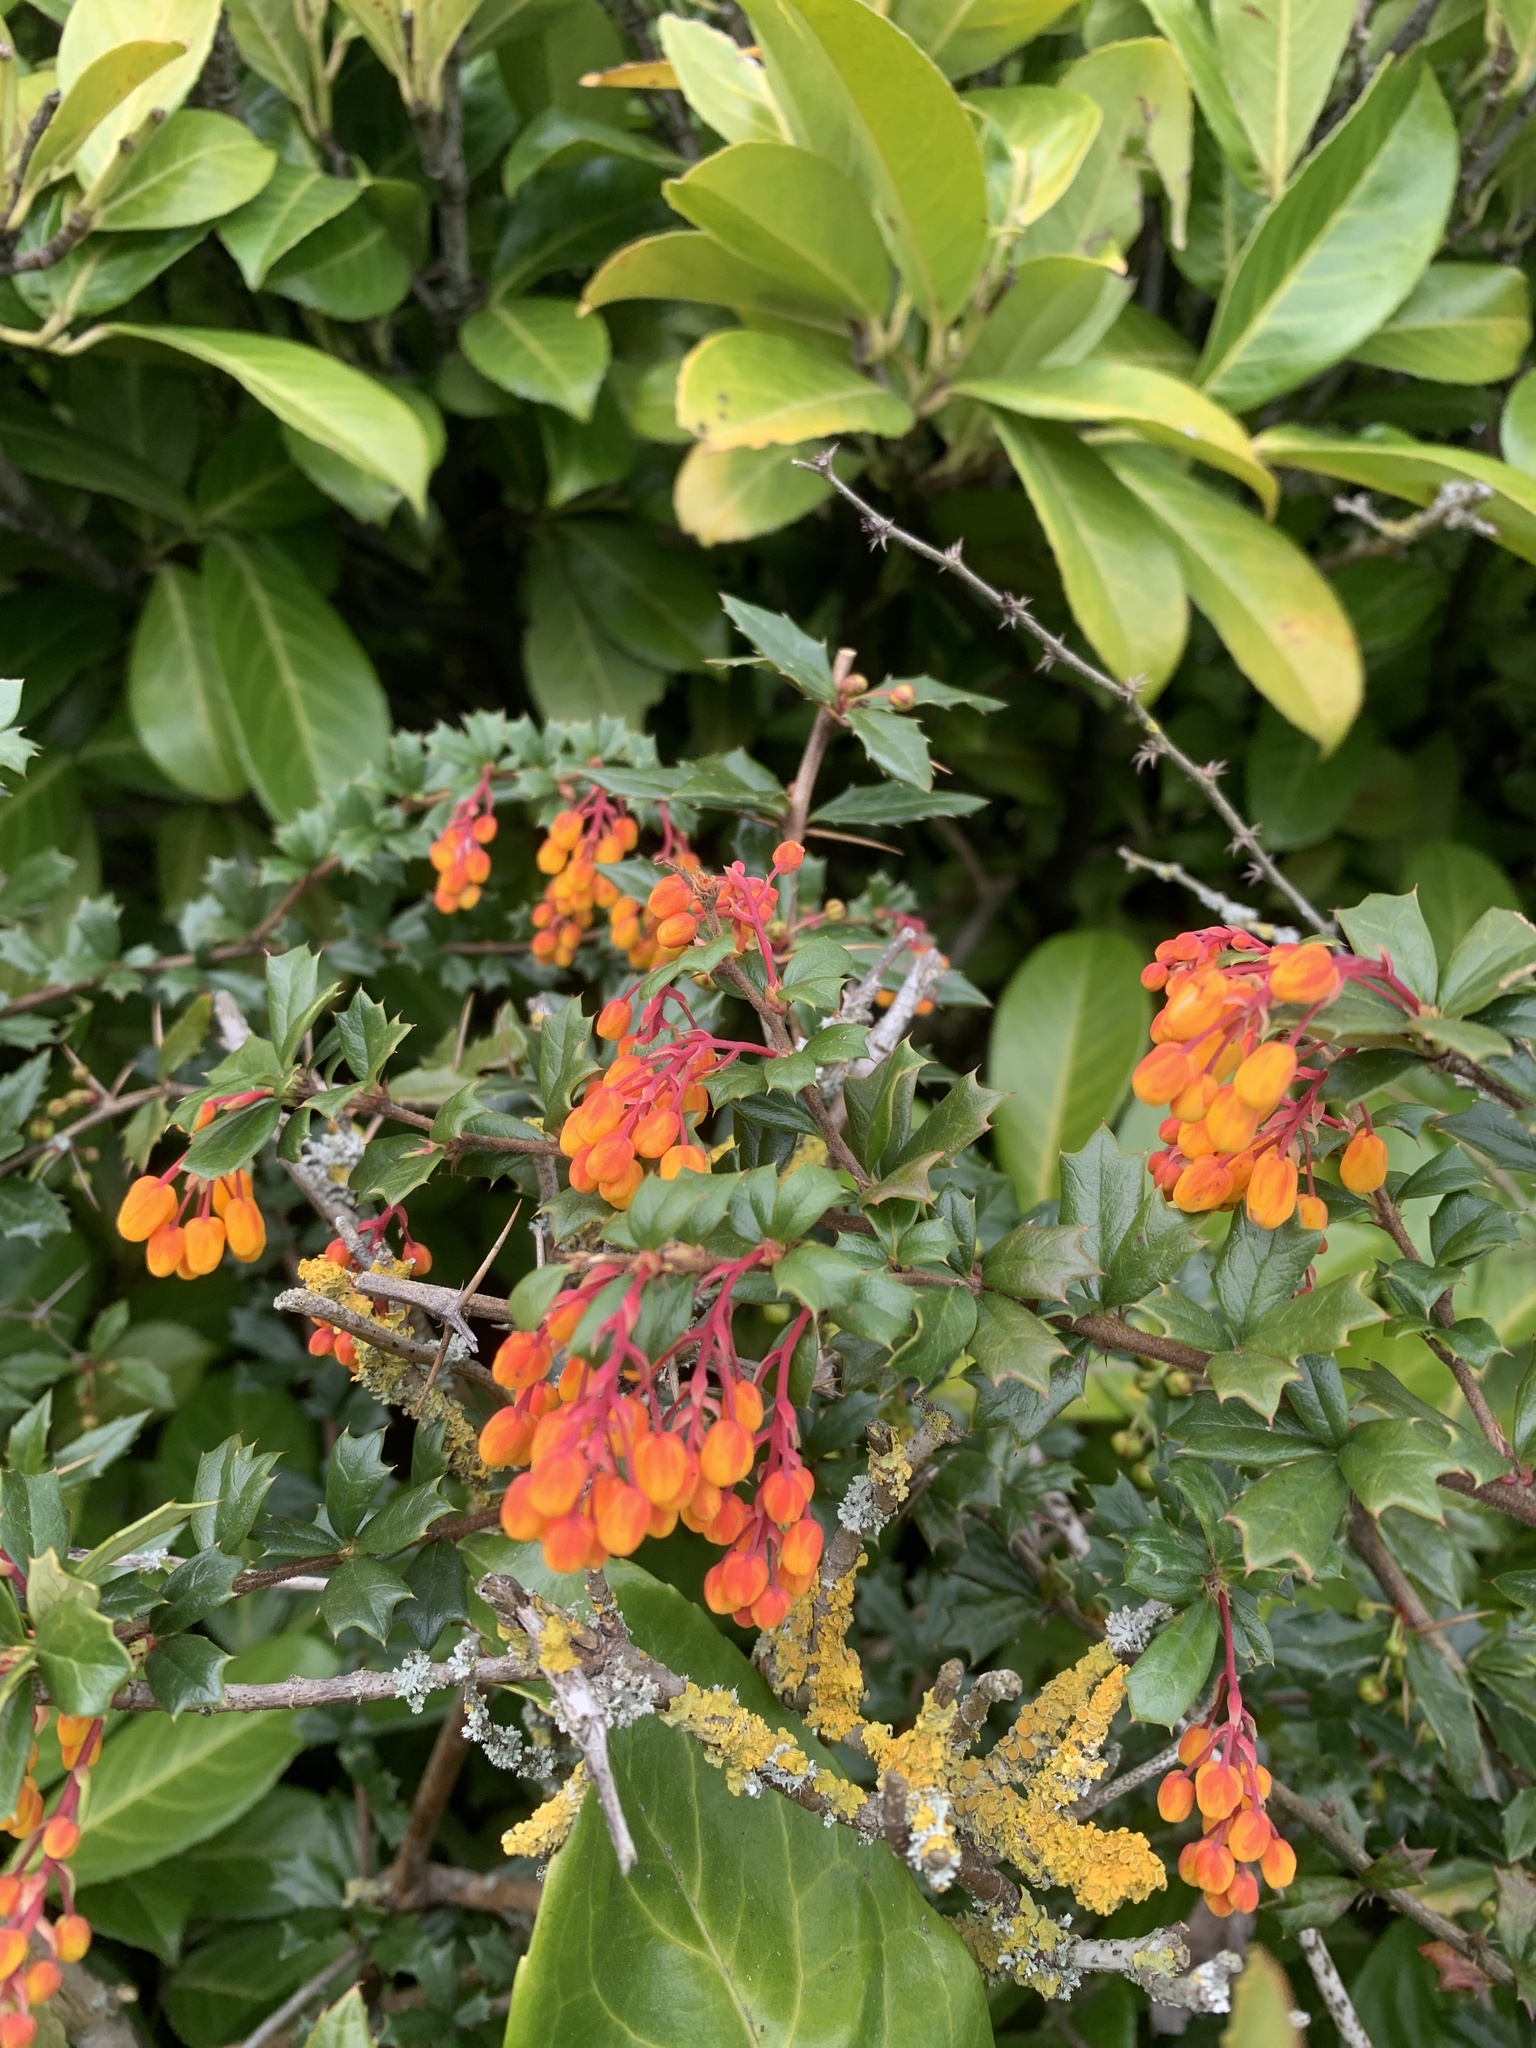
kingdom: Plantae
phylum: Tracheophyta
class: Magnoliopsida
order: Ranunculales
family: Berberidaceae
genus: Berberis
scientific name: Berberis darwinii
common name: Darwin's barberry
